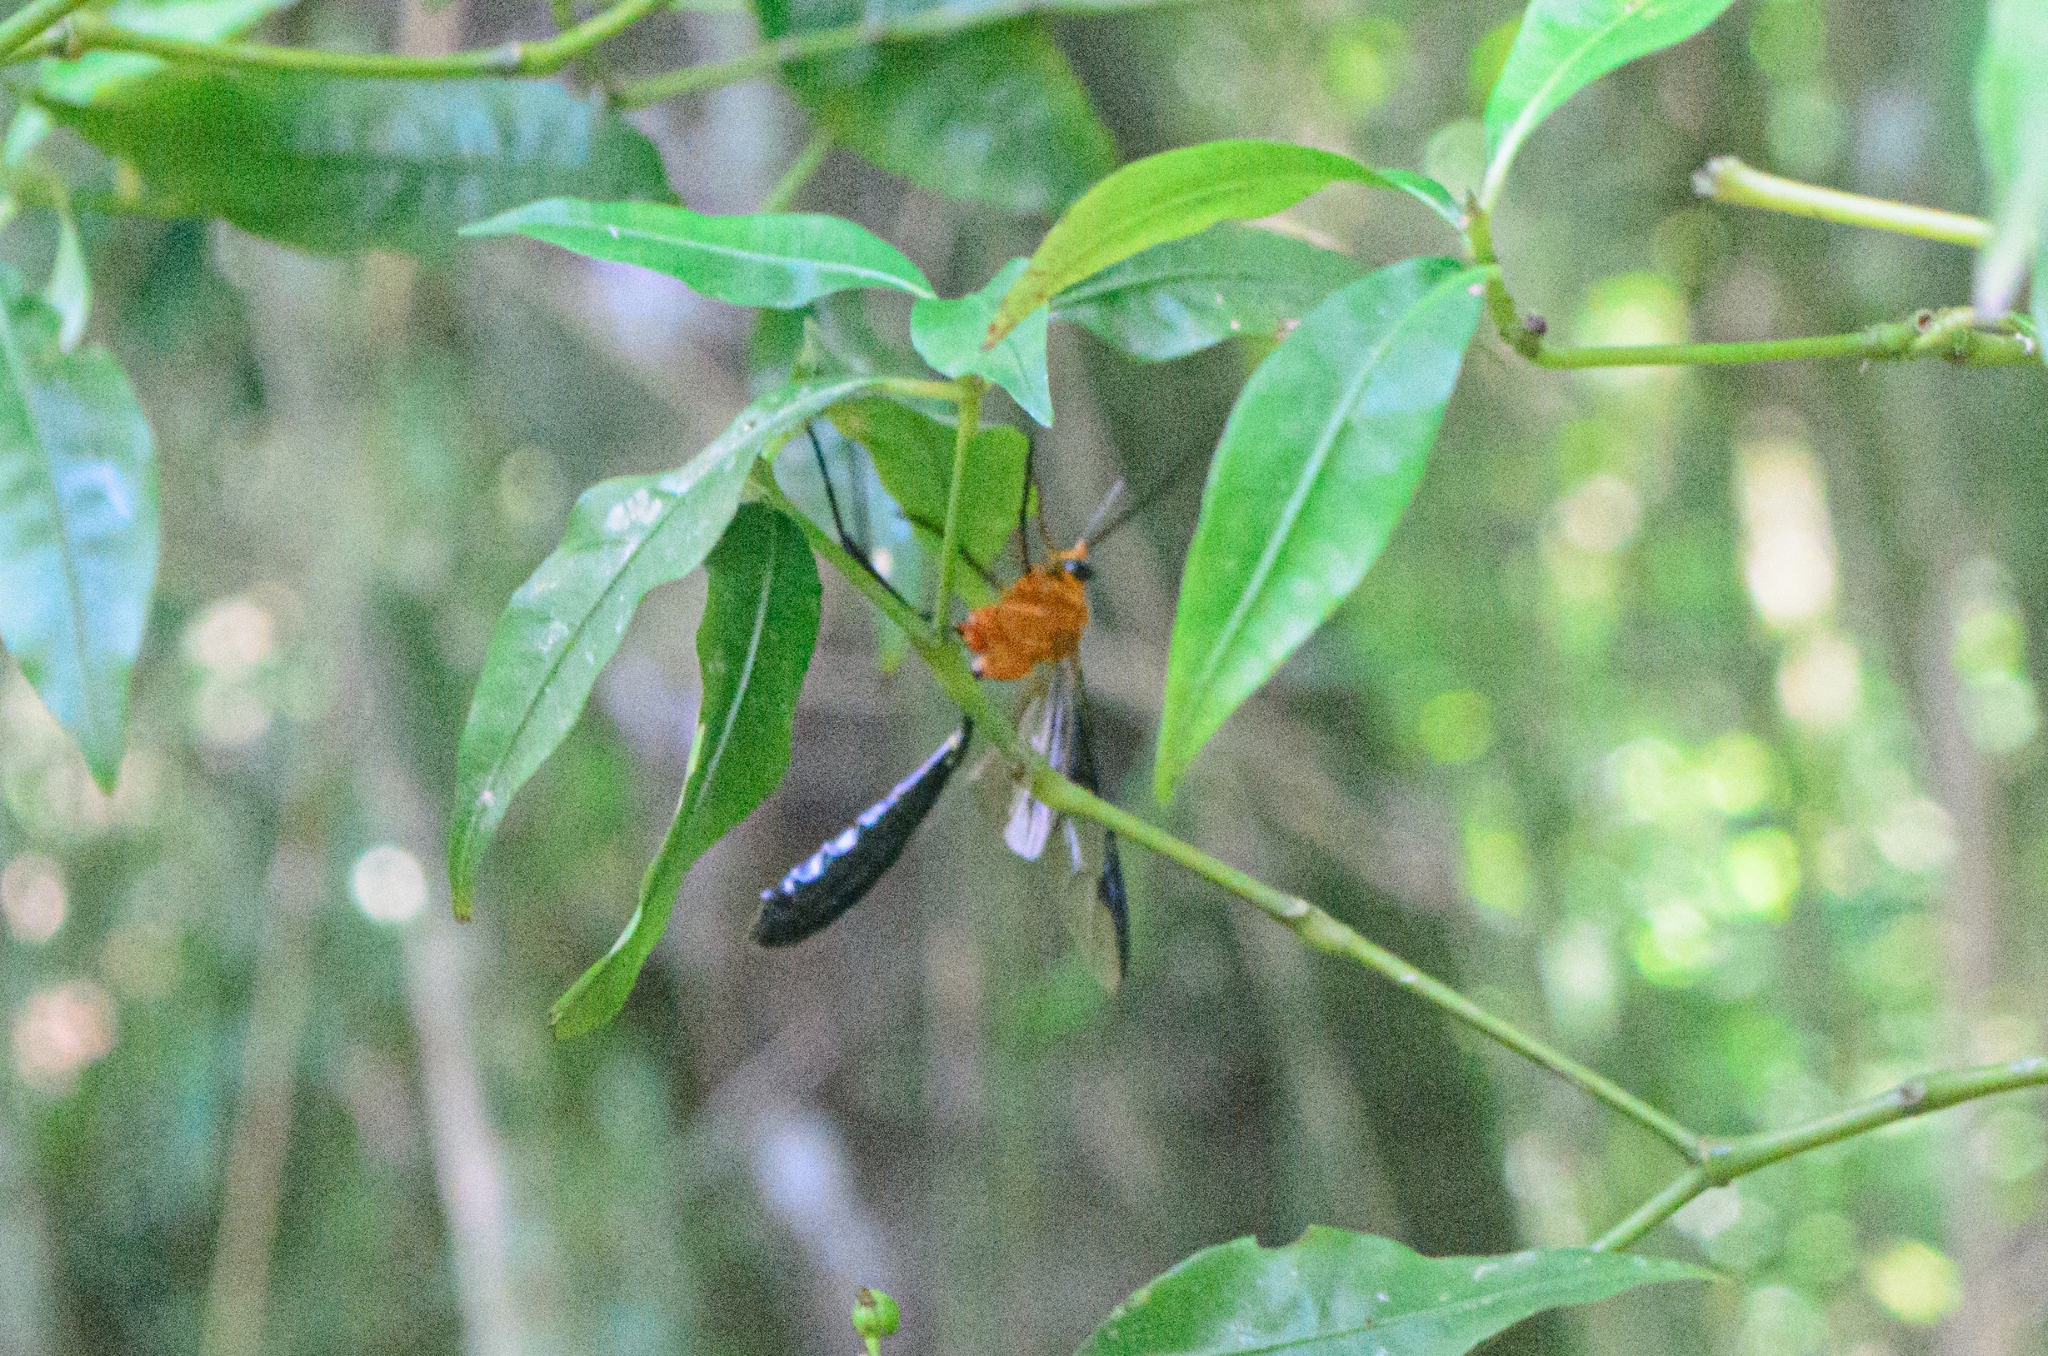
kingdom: Animalia
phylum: Arthropoda
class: Insecta
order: Hymenoptera
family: Ichneumonidae
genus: Thyreodon
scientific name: Thyreodon atriventris
